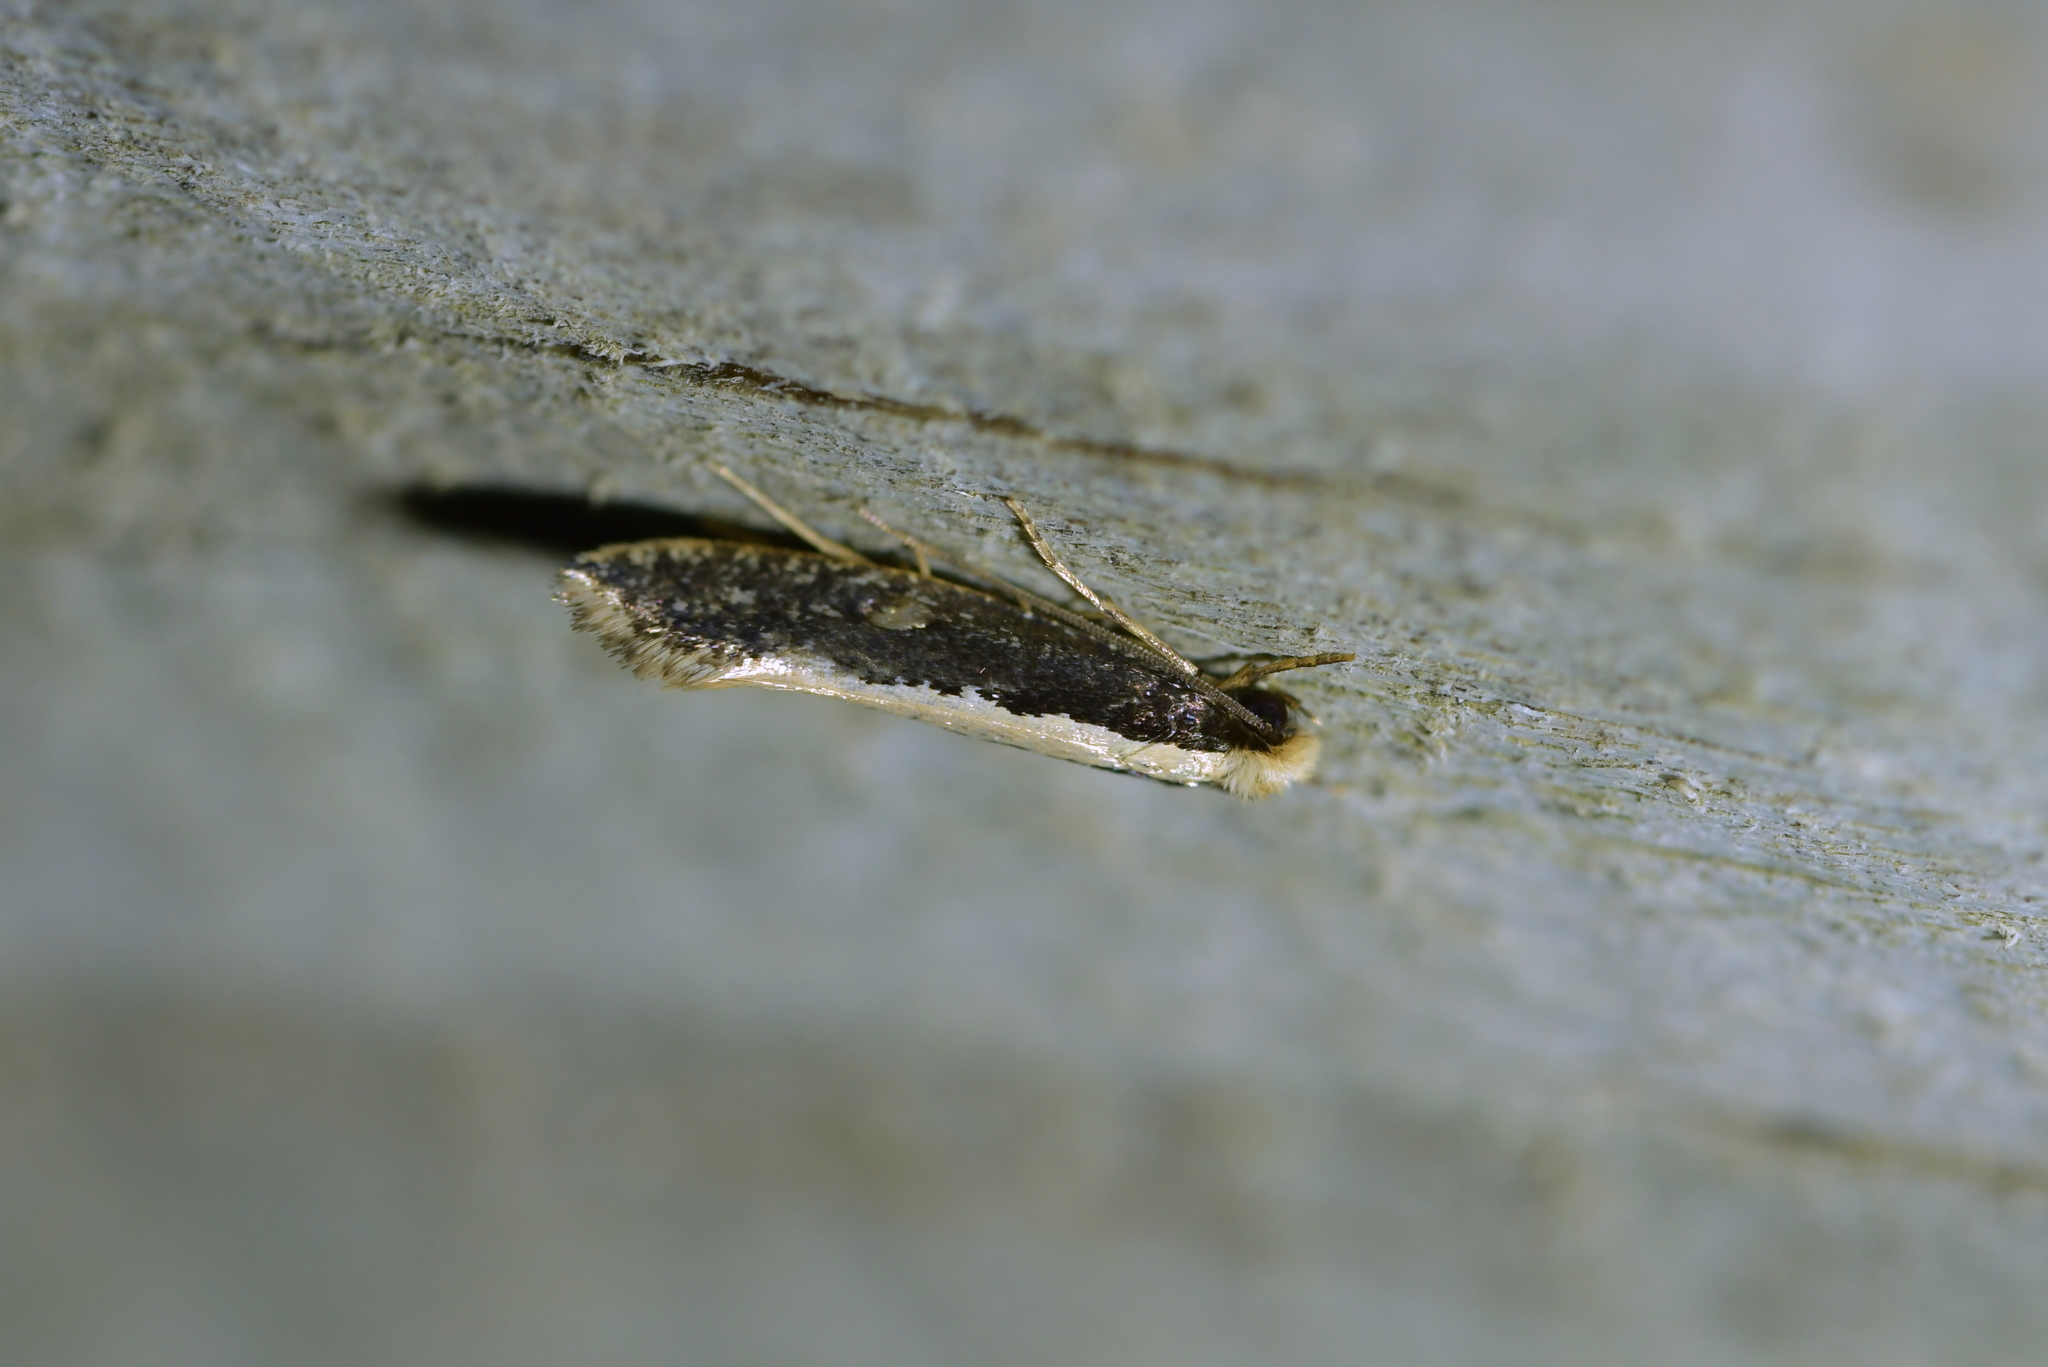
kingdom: Animalia
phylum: Arthropoda
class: Insecta
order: Lepidoptera
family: Tineidae
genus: Monopis
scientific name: Monopis crocicapitella
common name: Moth
